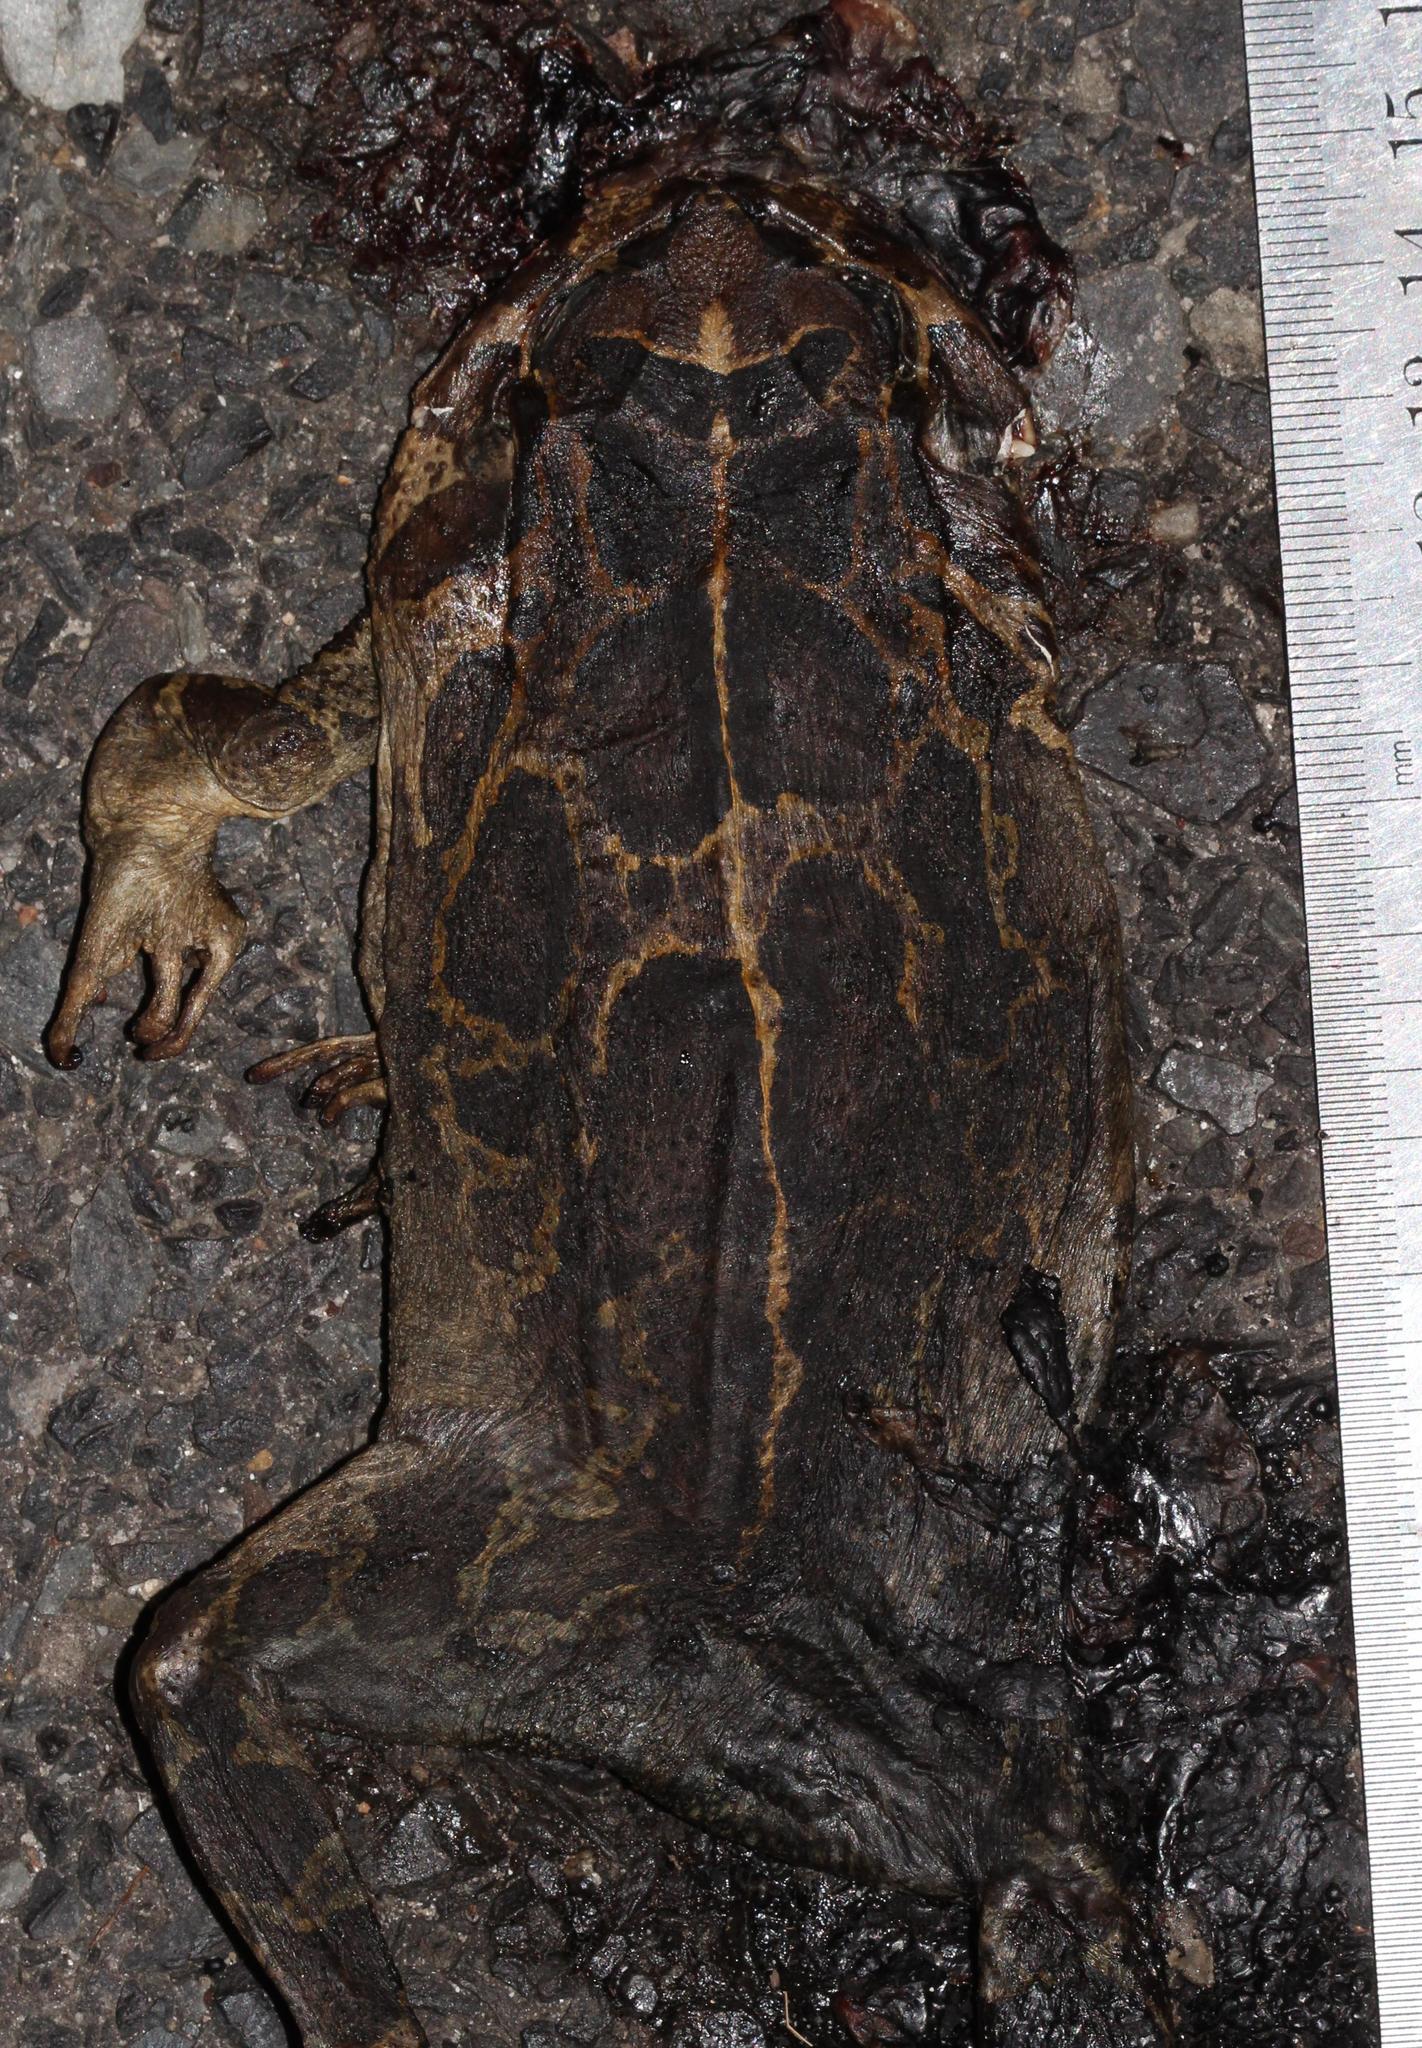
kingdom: Animalia
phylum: Chordata
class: Amphibia
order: Anura
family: Bufonidae
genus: Sclerophrys
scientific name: Sclerophrys pantherina
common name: Panther toad
